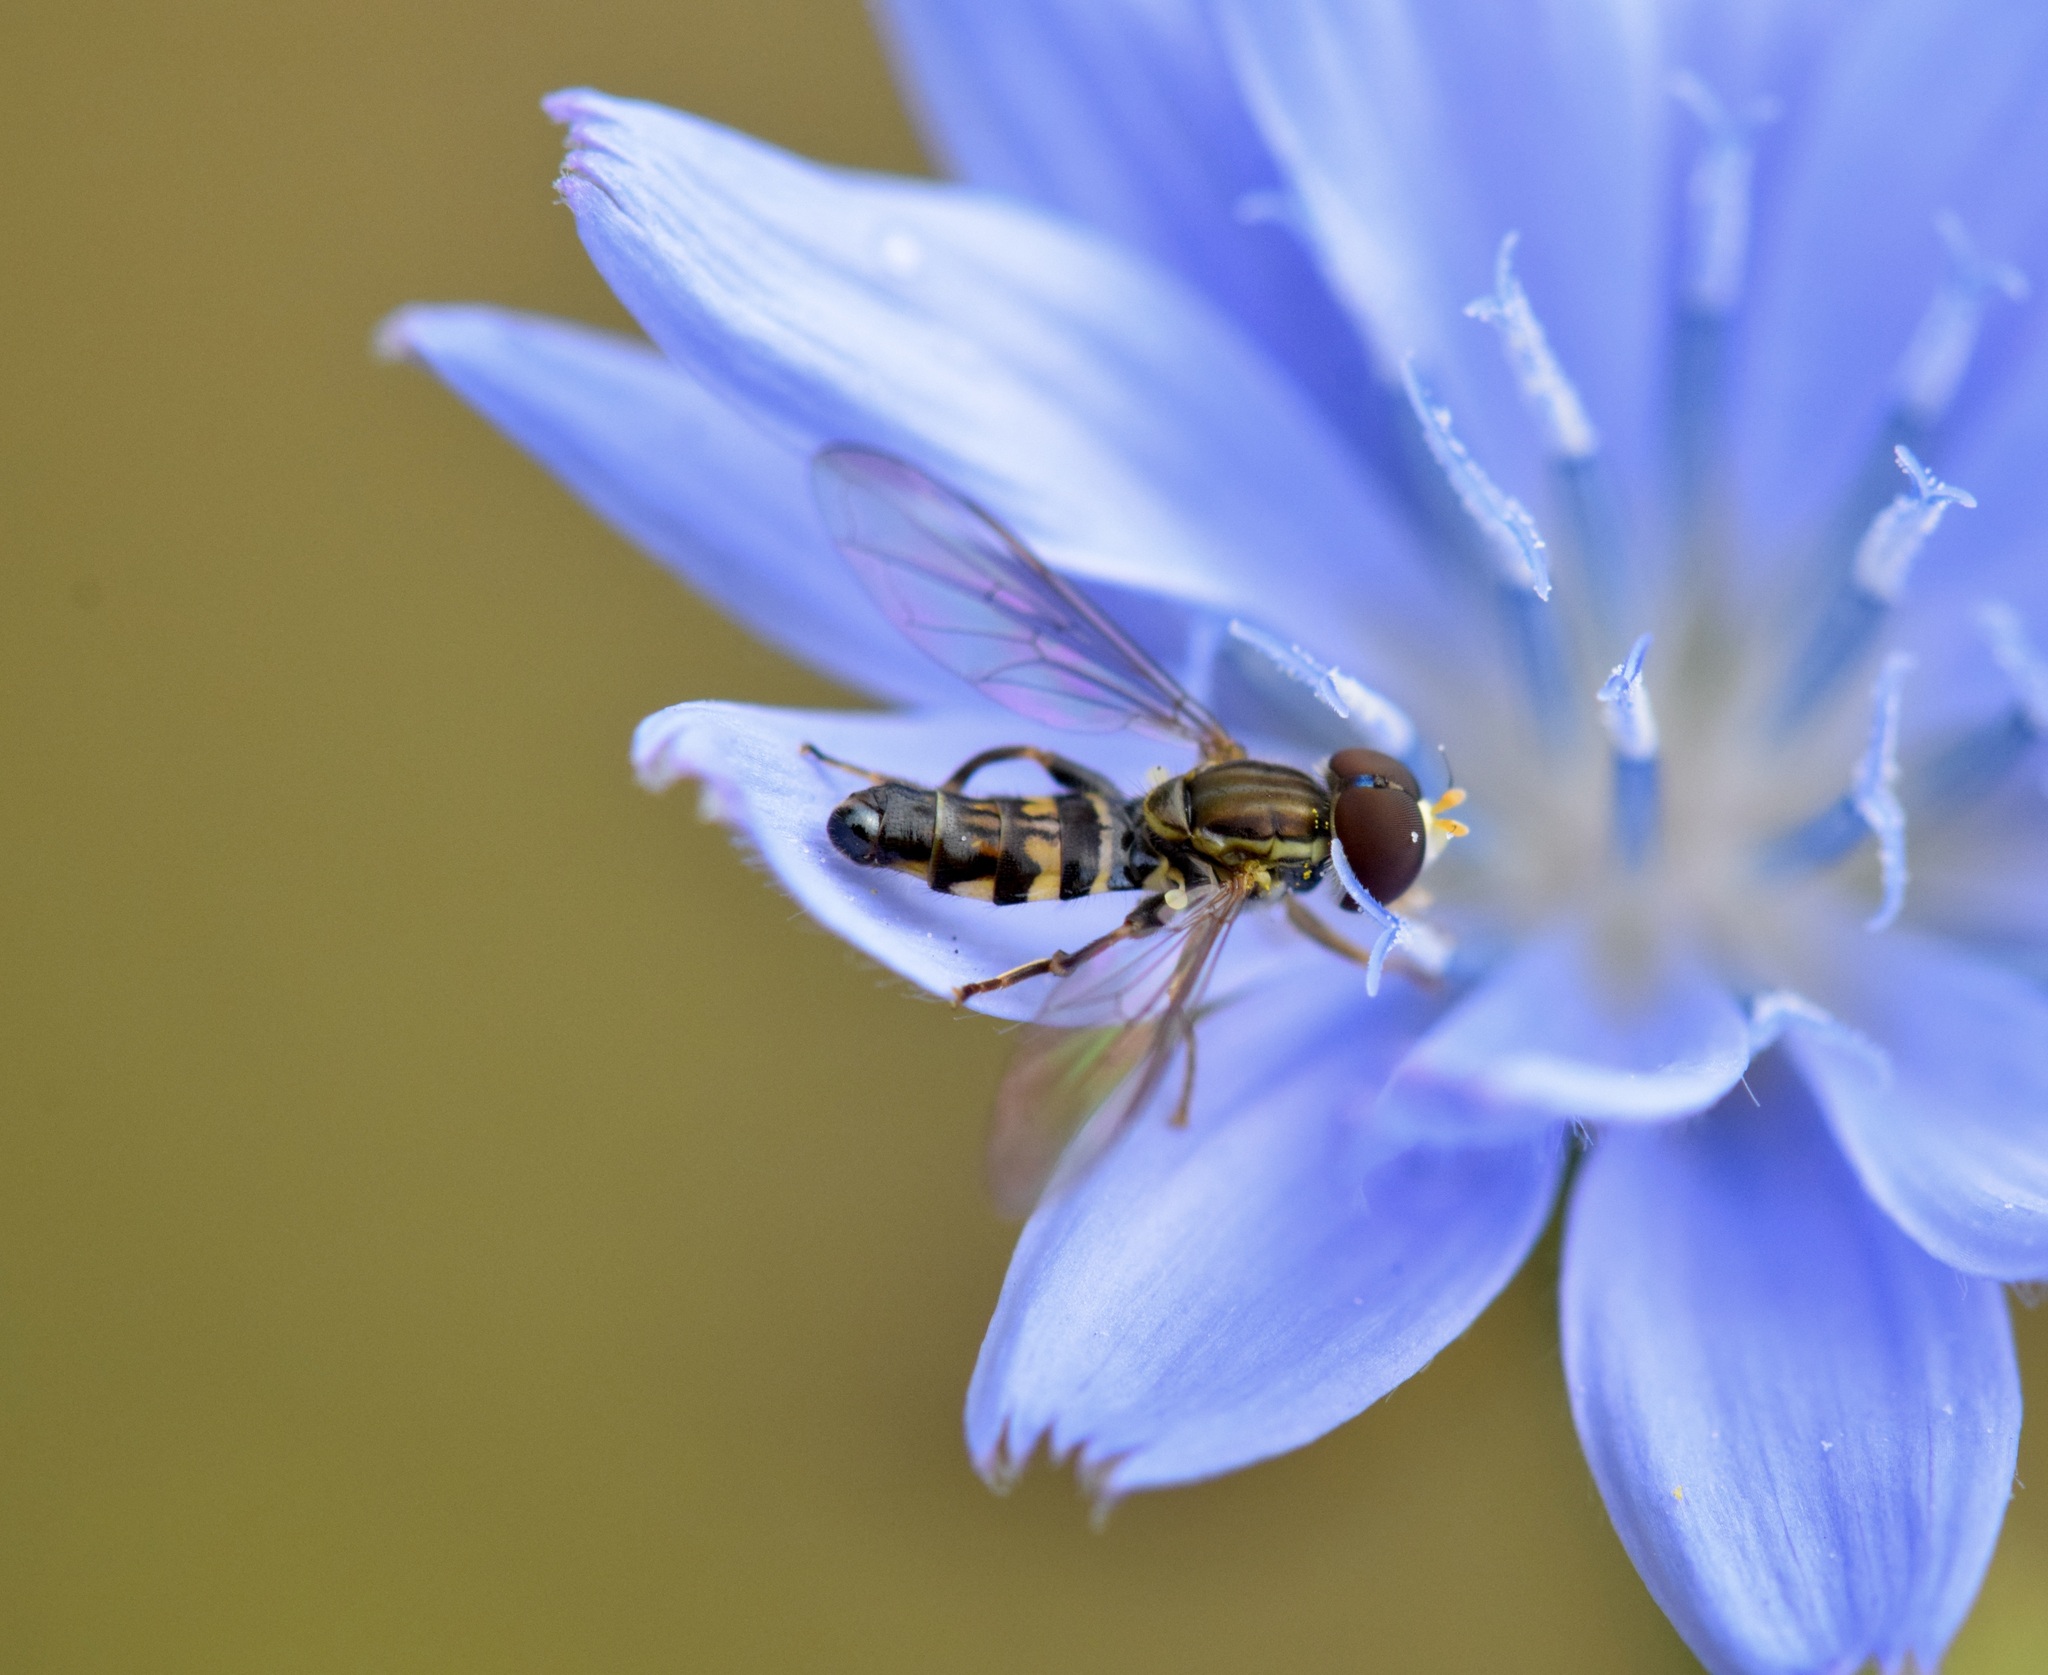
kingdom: Animalia
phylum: Arthropoda
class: Insecta
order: Diptera
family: Syrphidae
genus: Toxomerus
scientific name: Toxomerus geminatus
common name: Eastern calligrapher
